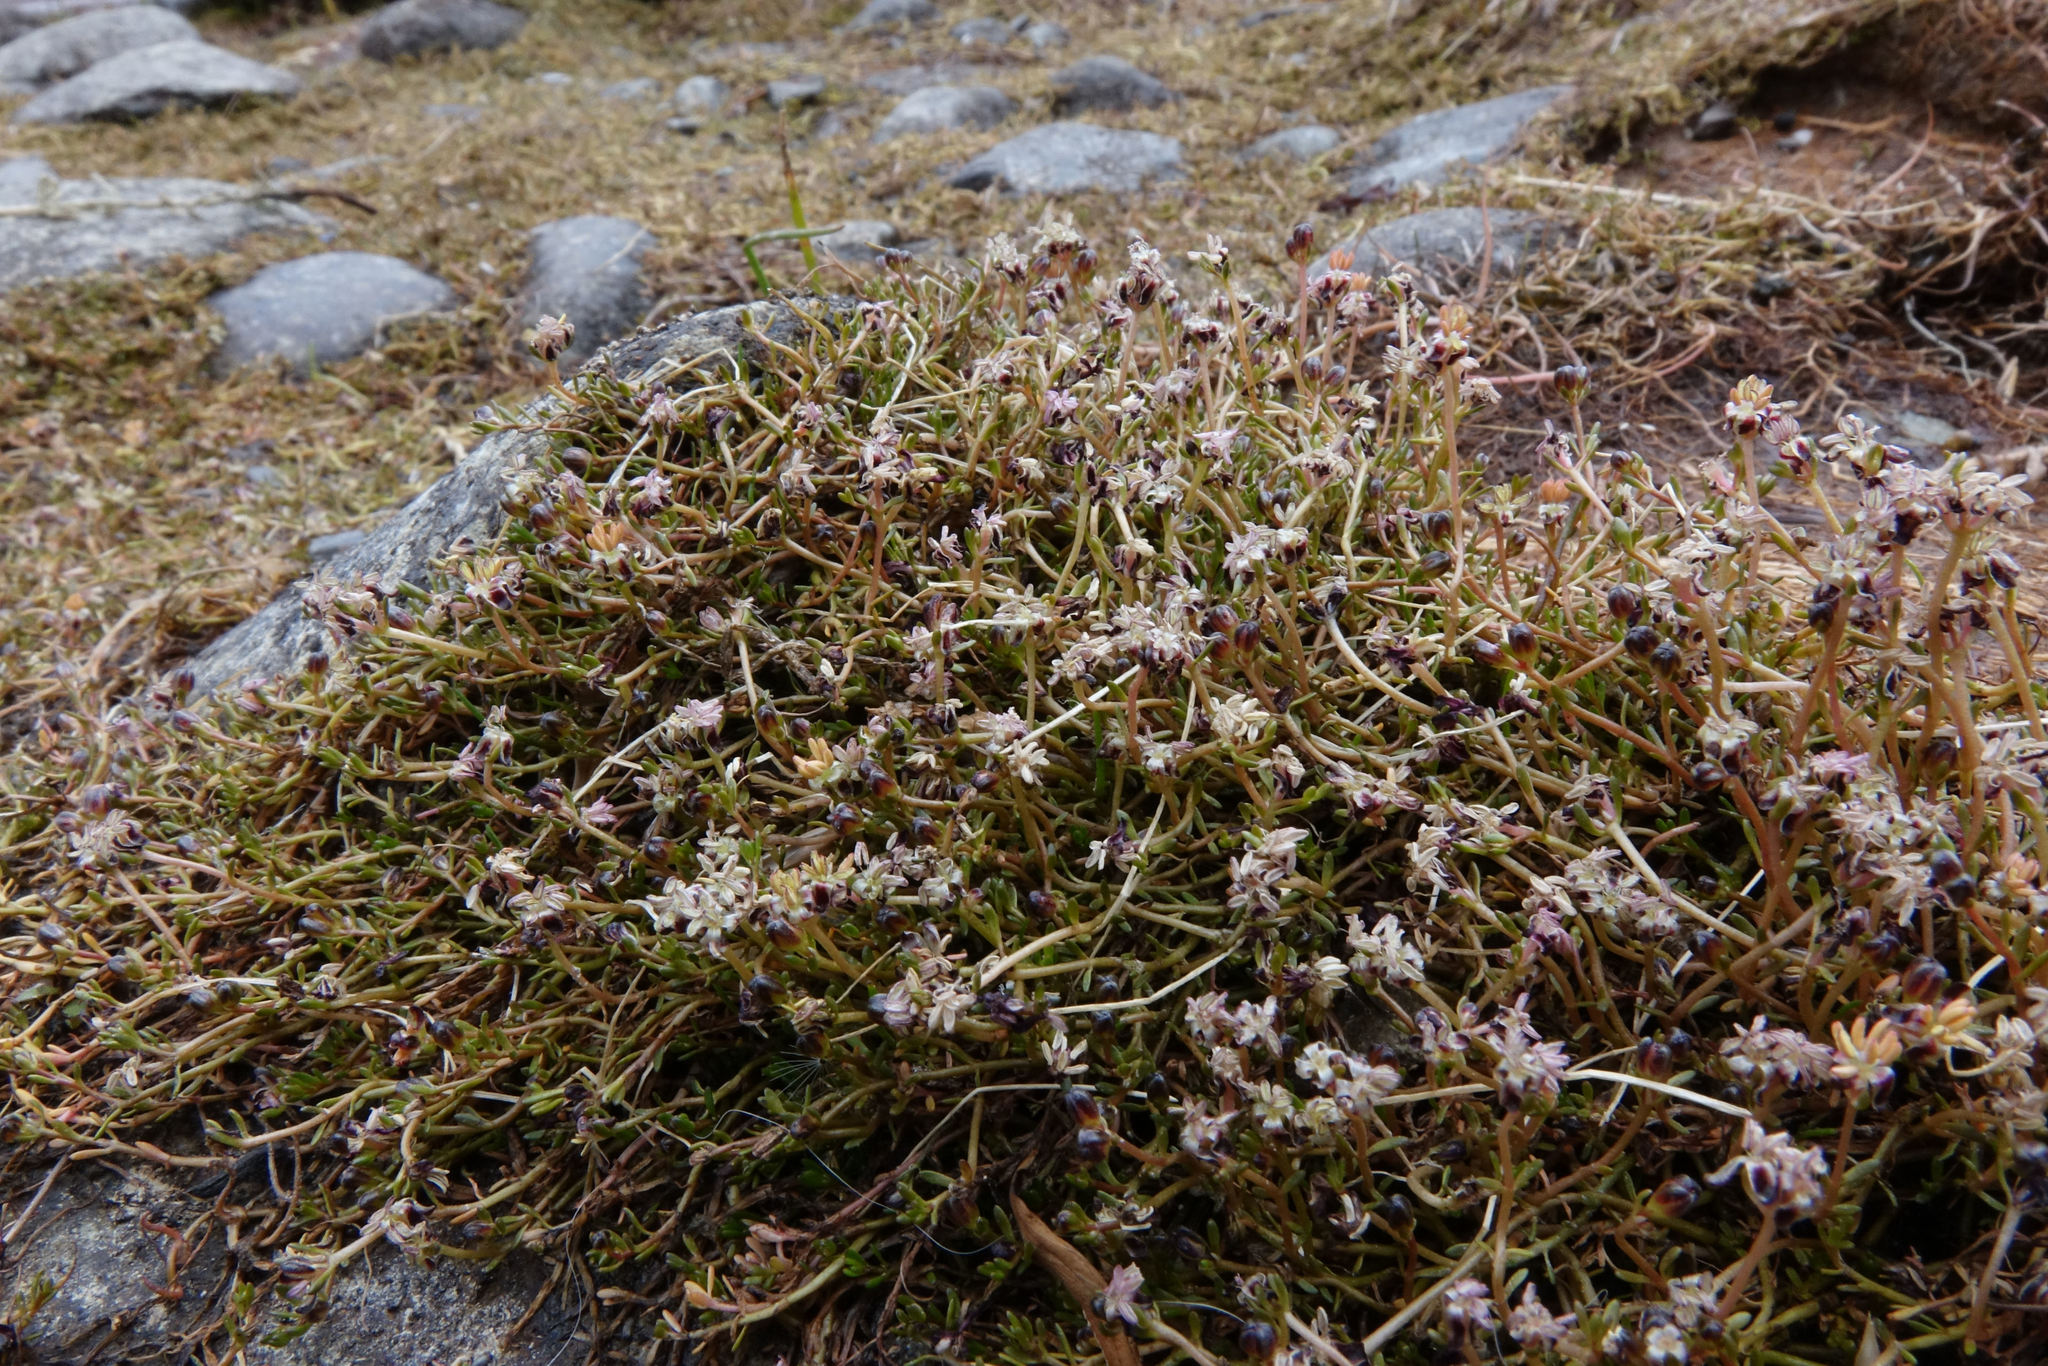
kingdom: Plantae
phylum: Tracheophyta
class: Magnoliopsida
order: Saxifragales
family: Haloragaceae
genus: Myriophyllum
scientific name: Myriophyllum pedunculatum
